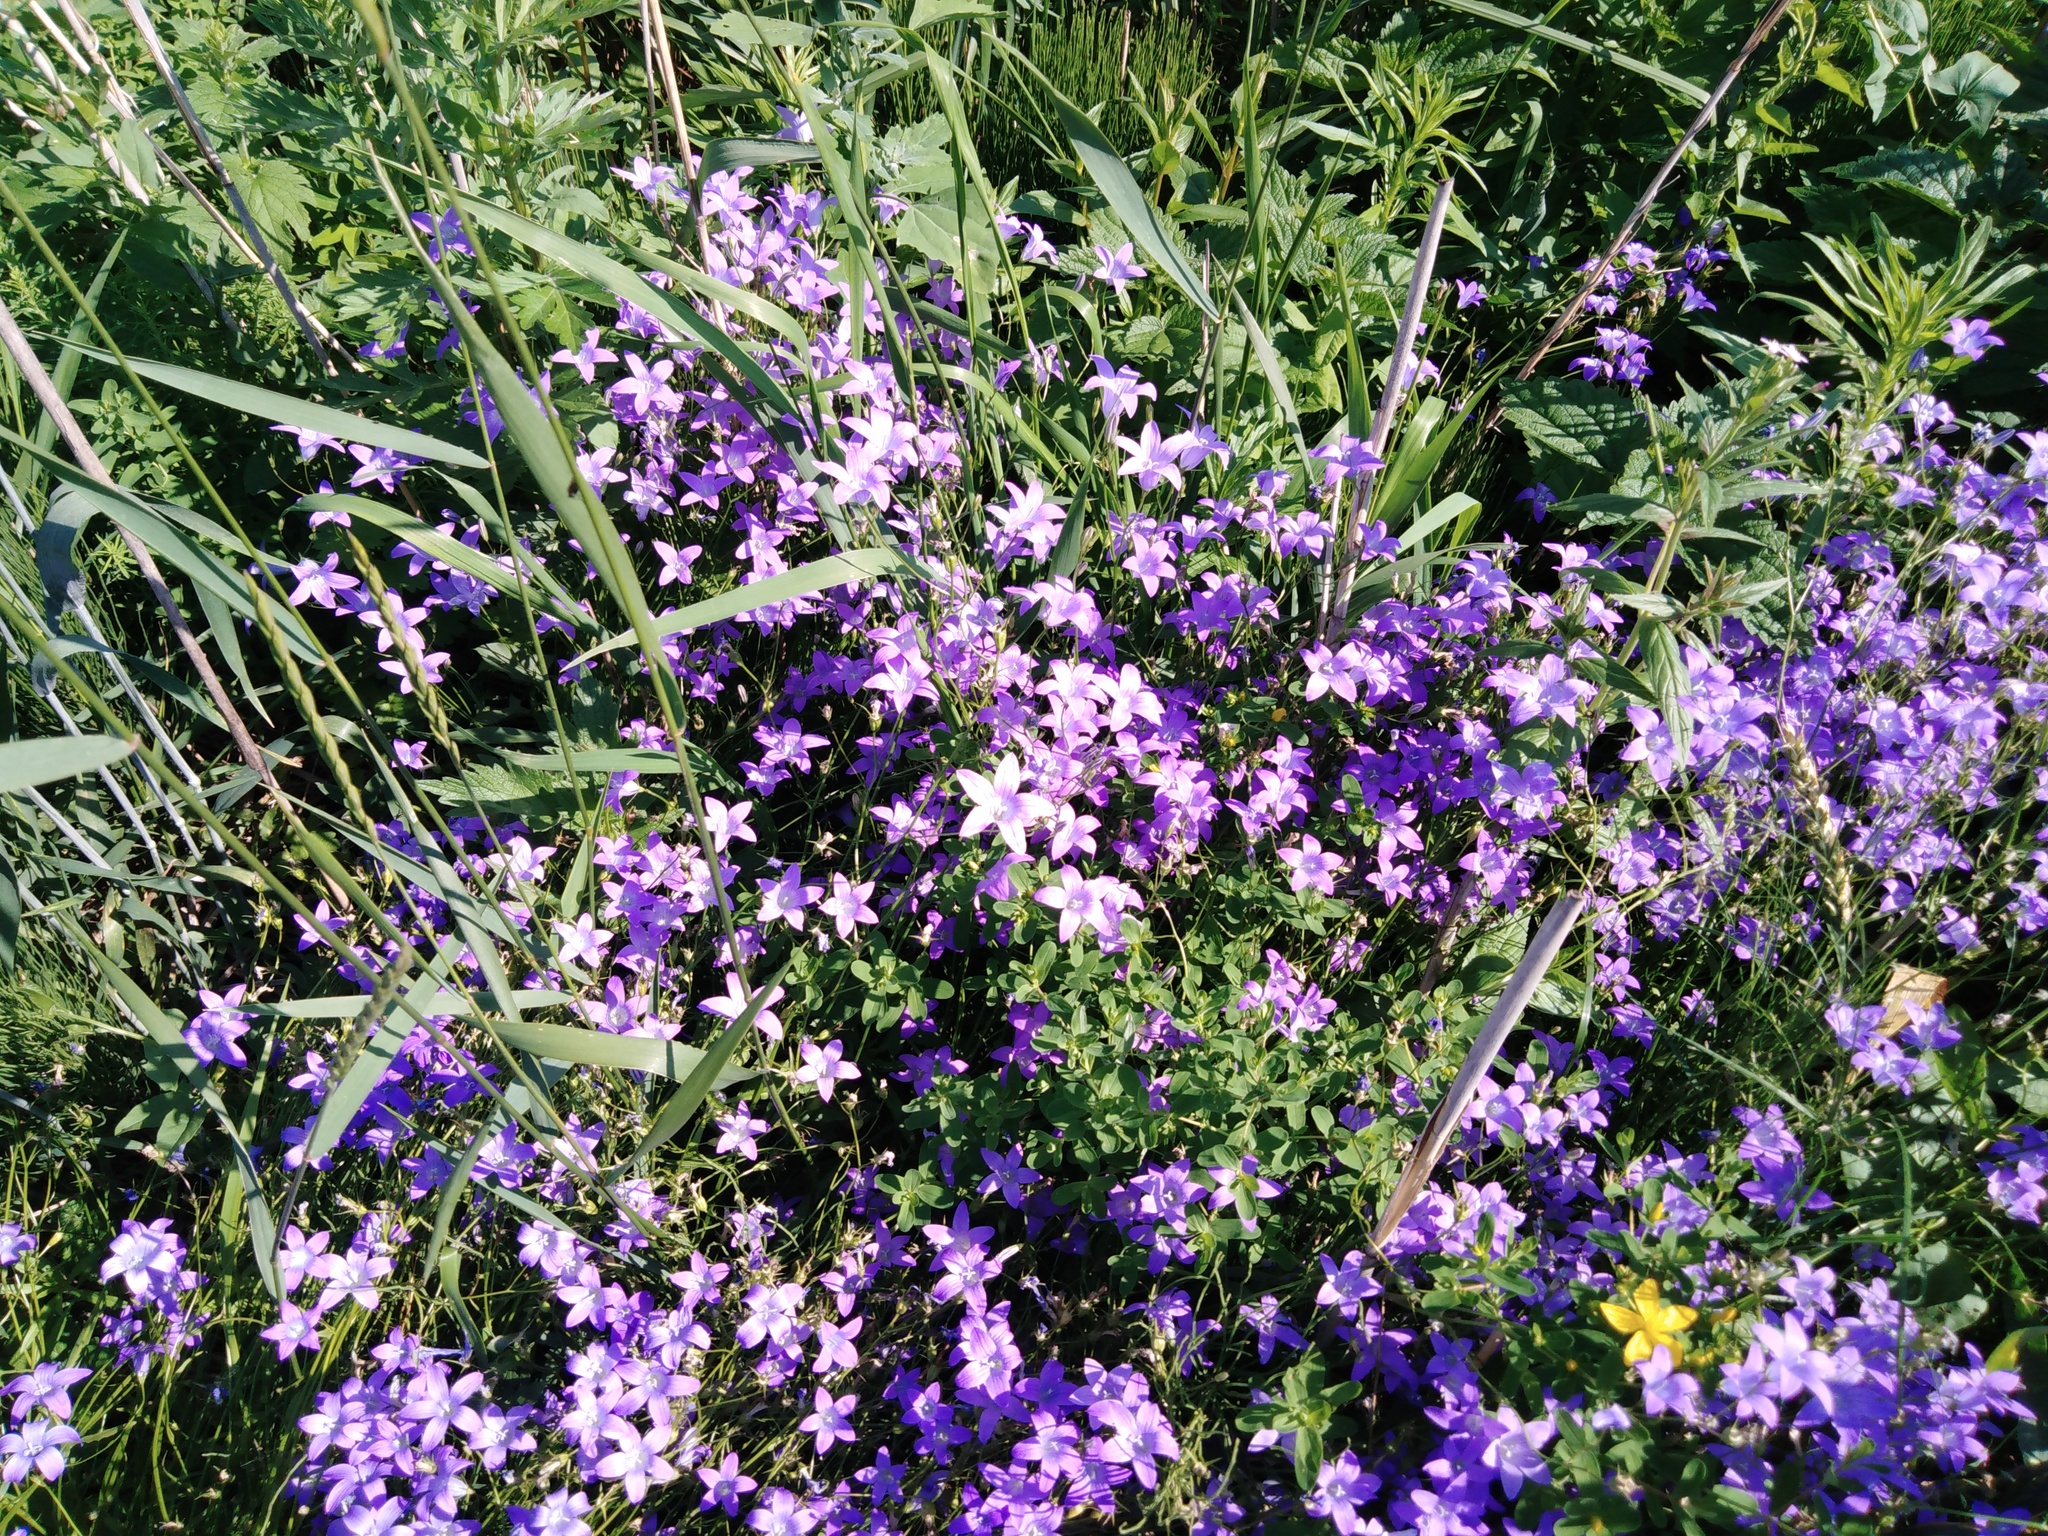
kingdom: Plantae
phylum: Tracheophyta
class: Magnoliopsida
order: Asterales
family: Campanulaceae
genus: Campanula
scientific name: Campanula patula
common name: Spreading bellflower
